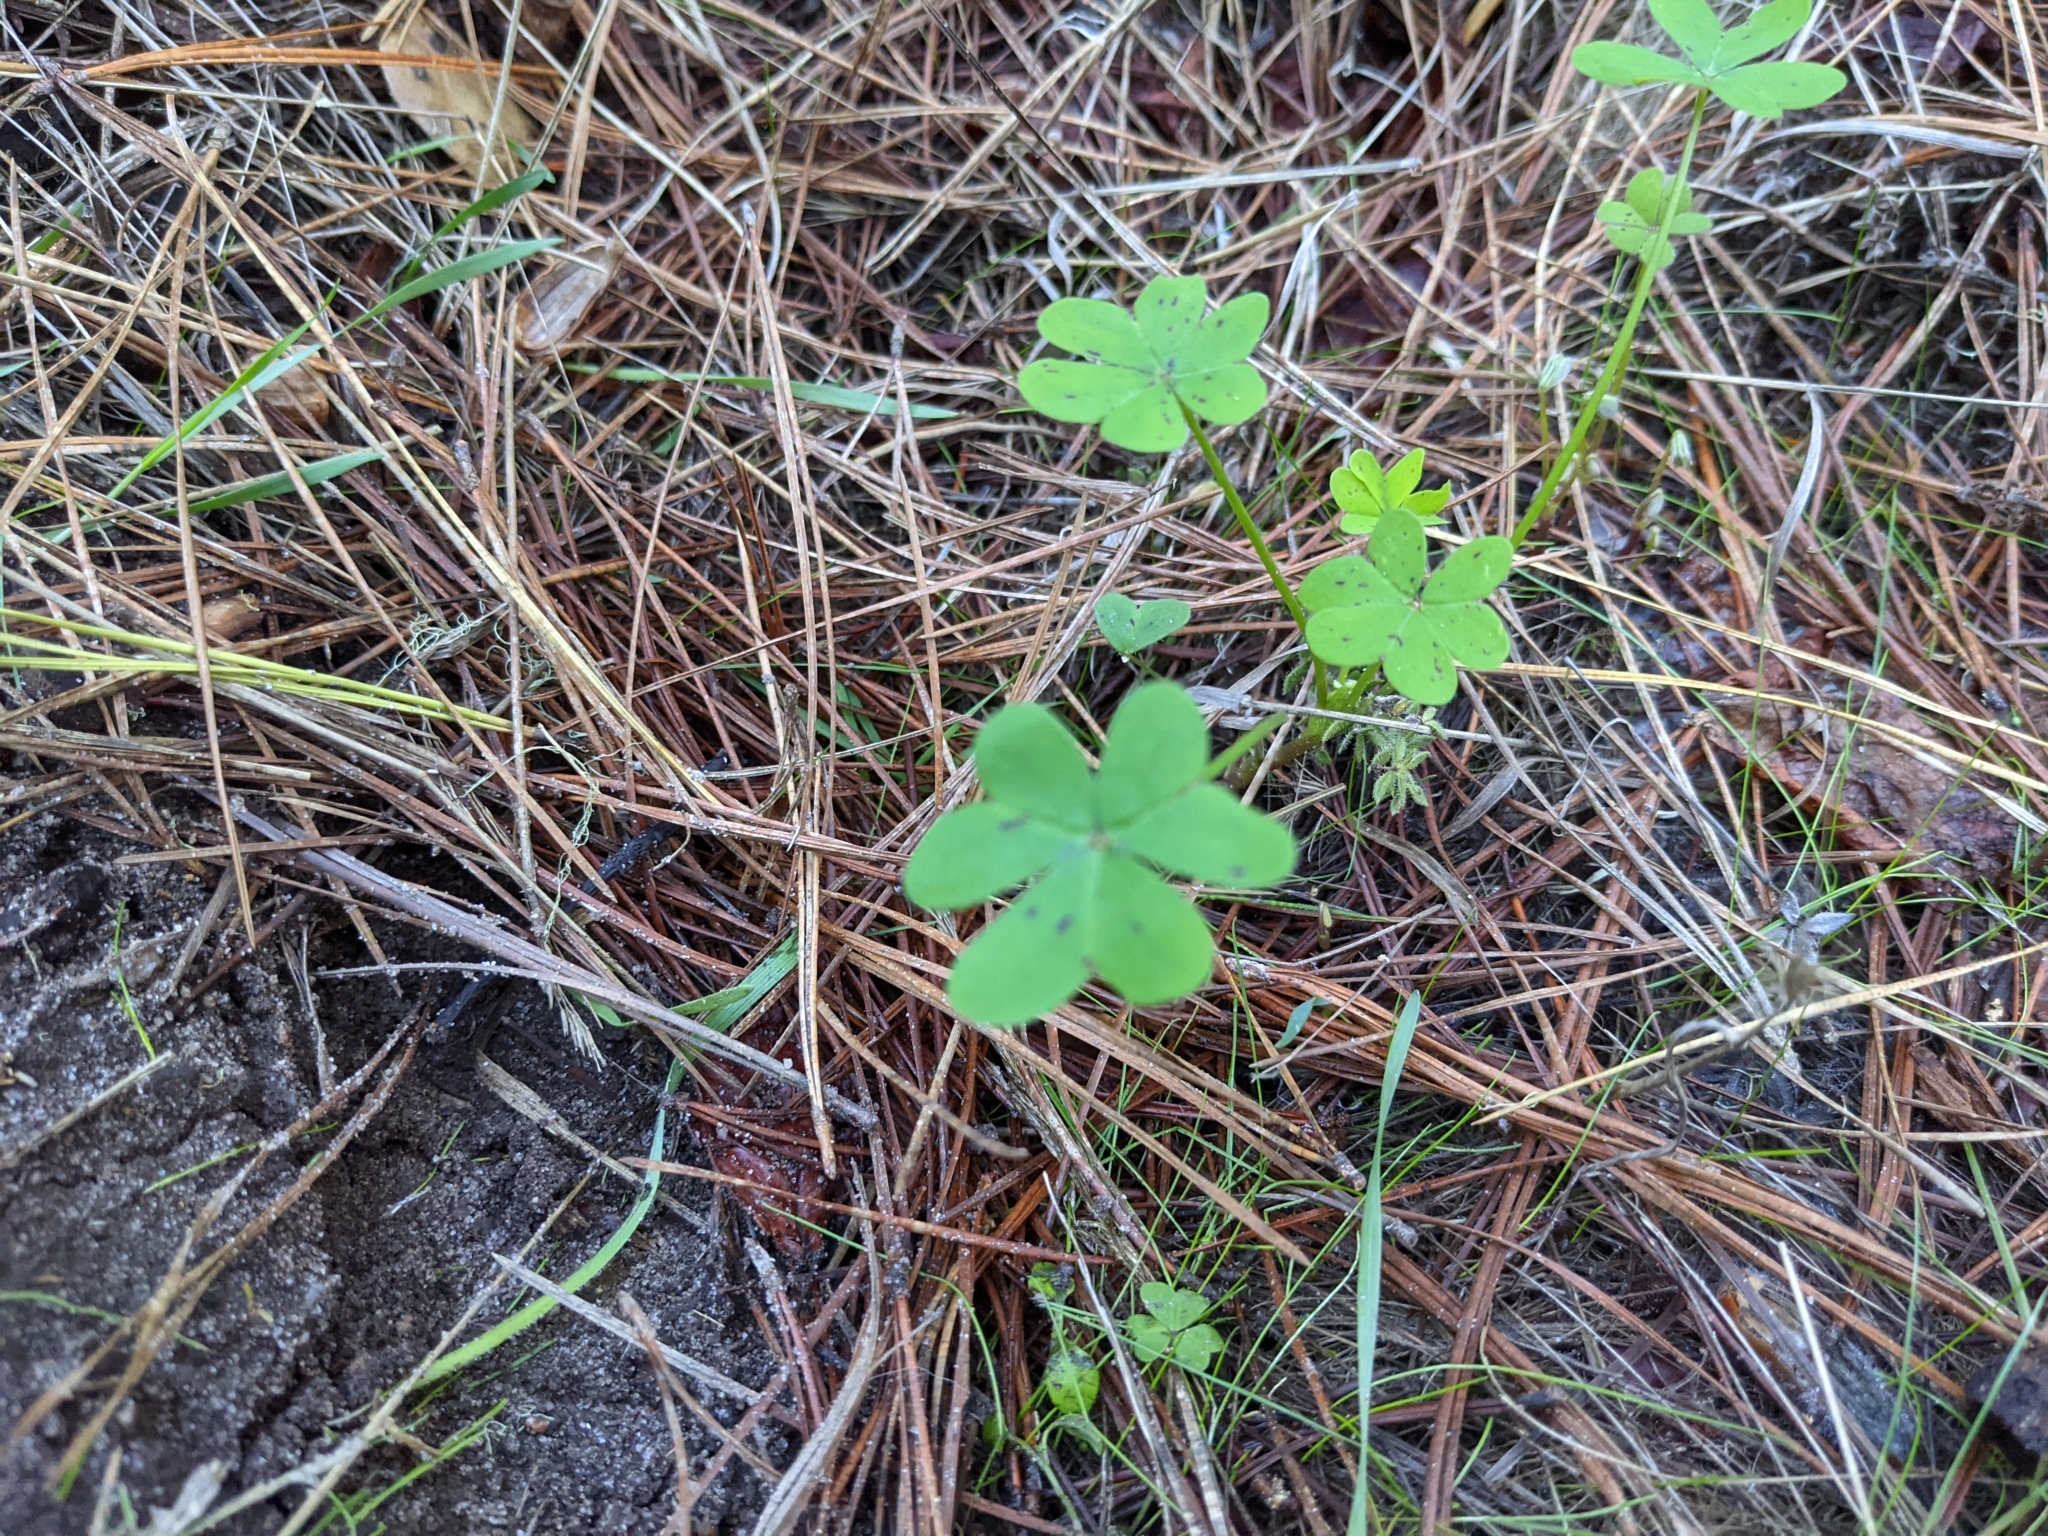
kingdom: Plantae
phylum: Tracheophyta
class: Magnoliopsida
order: Oxalidales
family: Oxalidaceae
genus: Oxalis
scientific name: Oxalis pes-caprae
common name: Bermuda-buttercup
